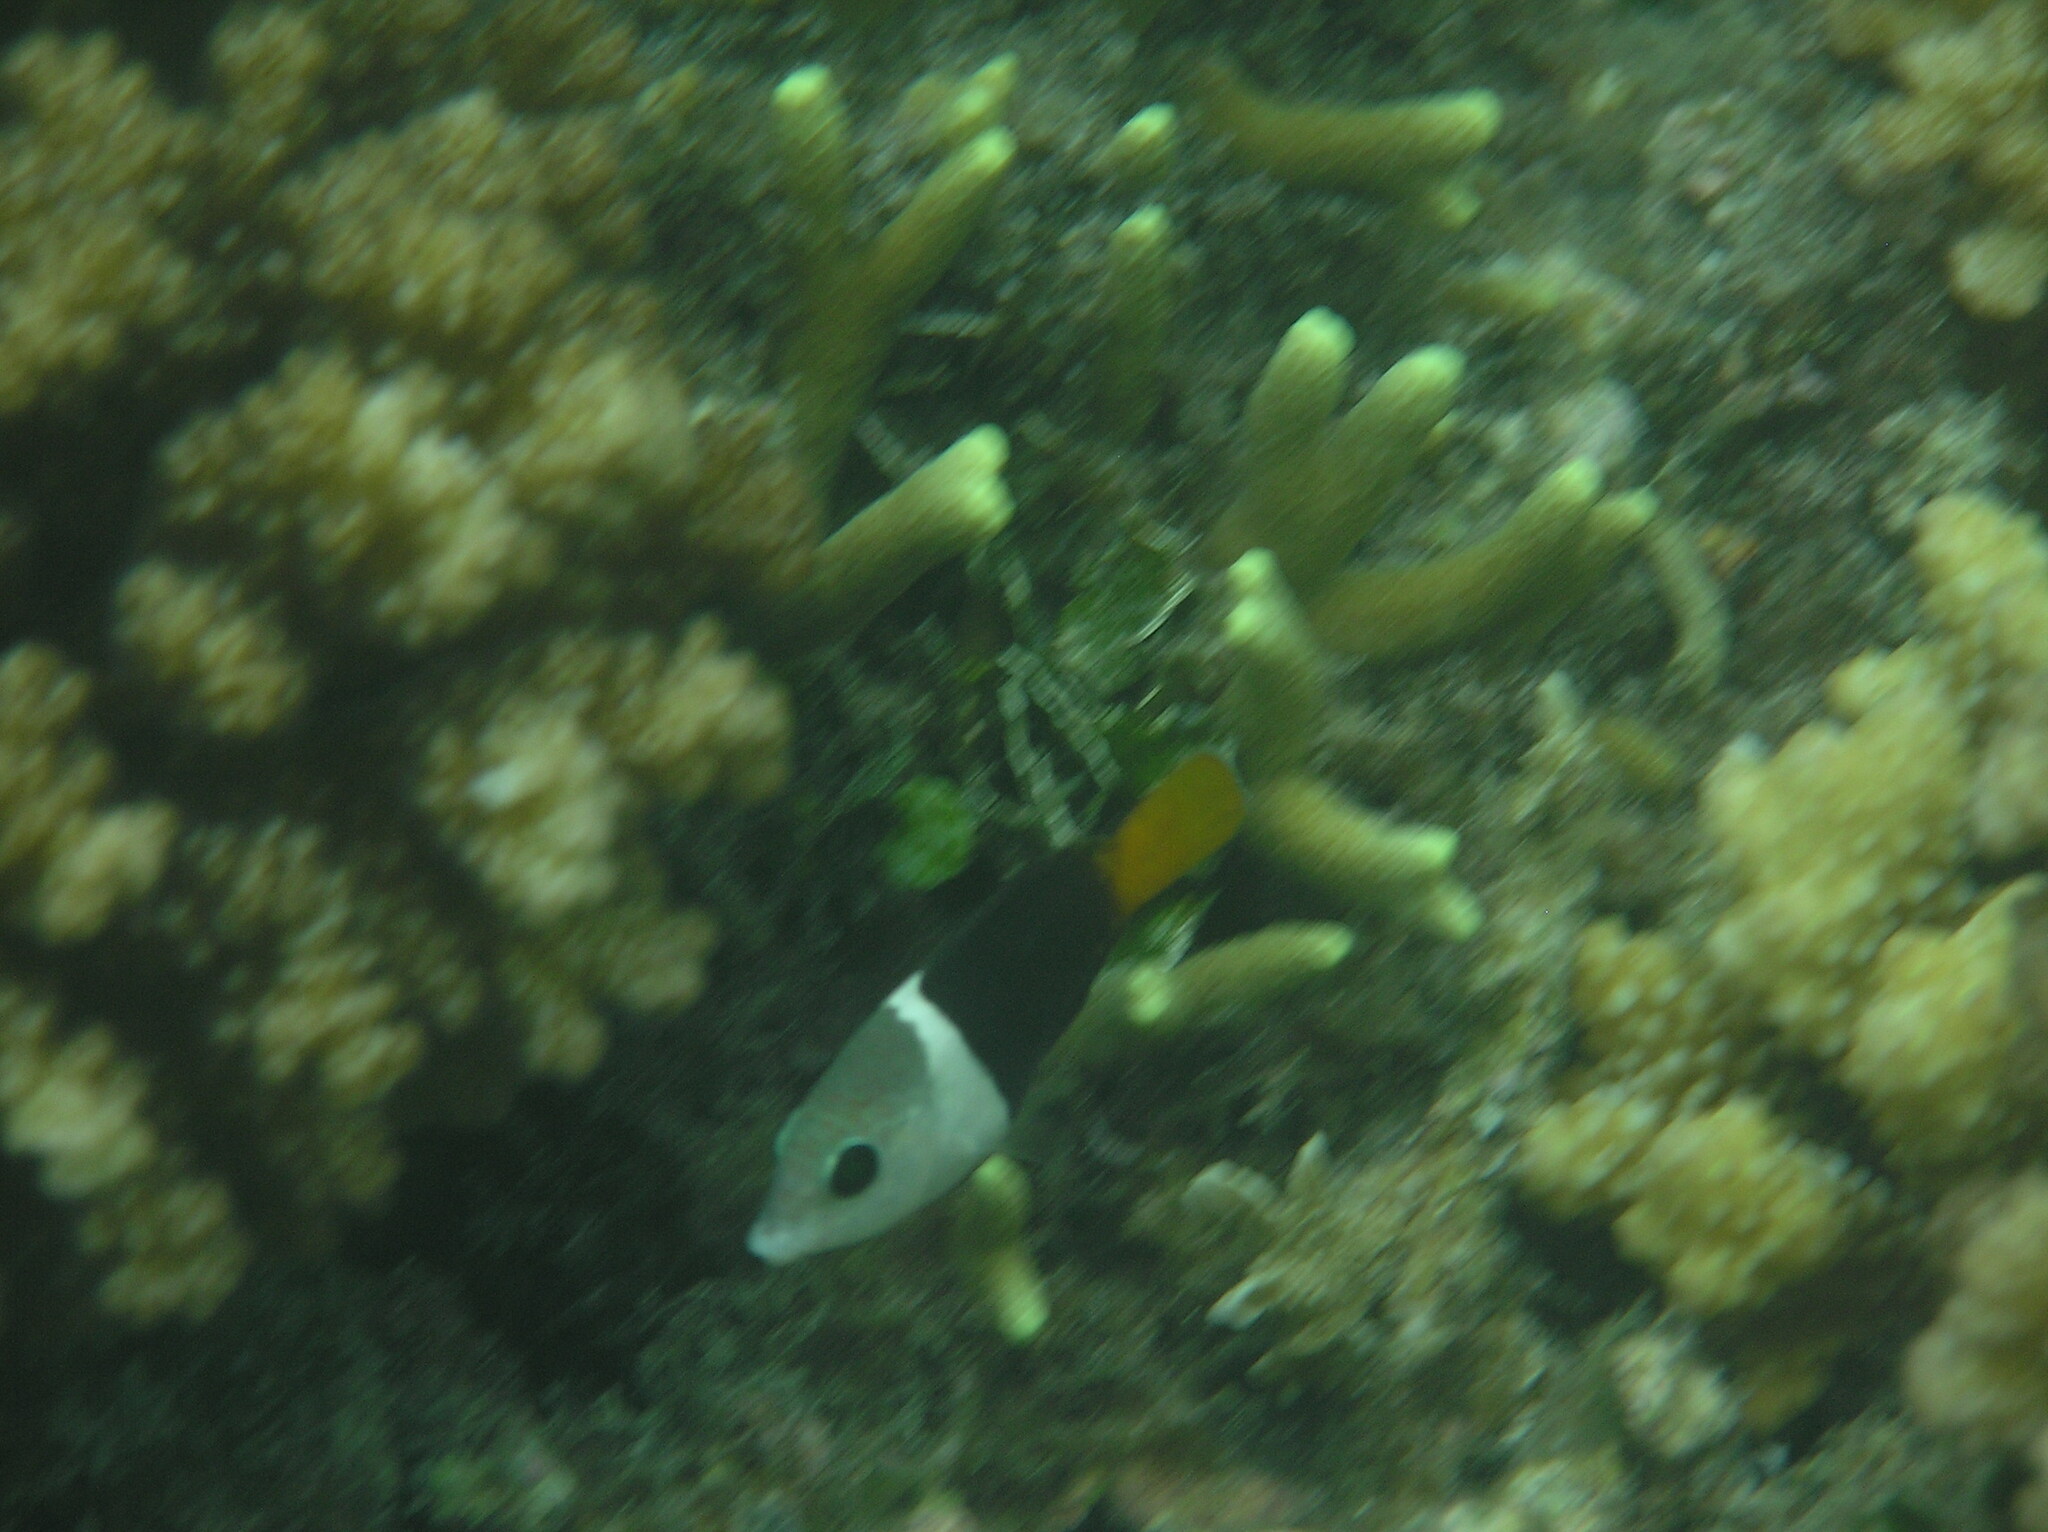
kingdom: Animalia
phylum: Chordata
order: Perciformes
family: Labridae
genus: Hemigymnus
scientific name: Hemigymnus melapterus
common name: Blackeye thicklip
